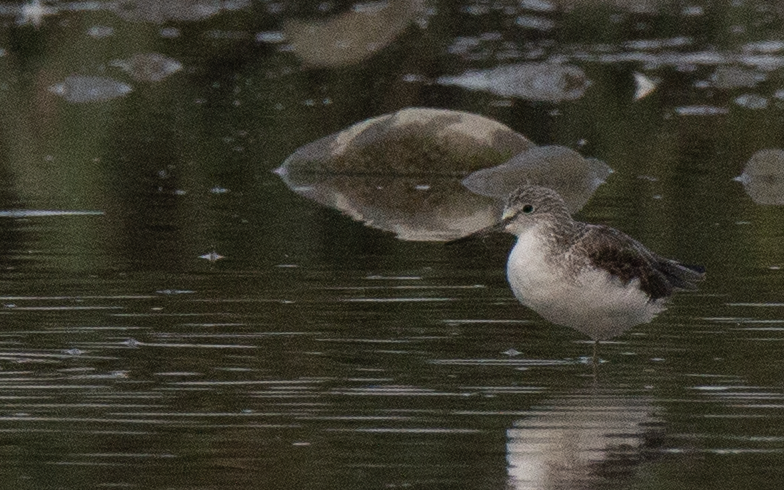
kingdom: Animalia
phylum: Chordata
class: Aves
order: Charadriiformes
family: Scolopacidae
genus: Tringa
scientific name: Tringa nebularia
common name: Common greenshank
